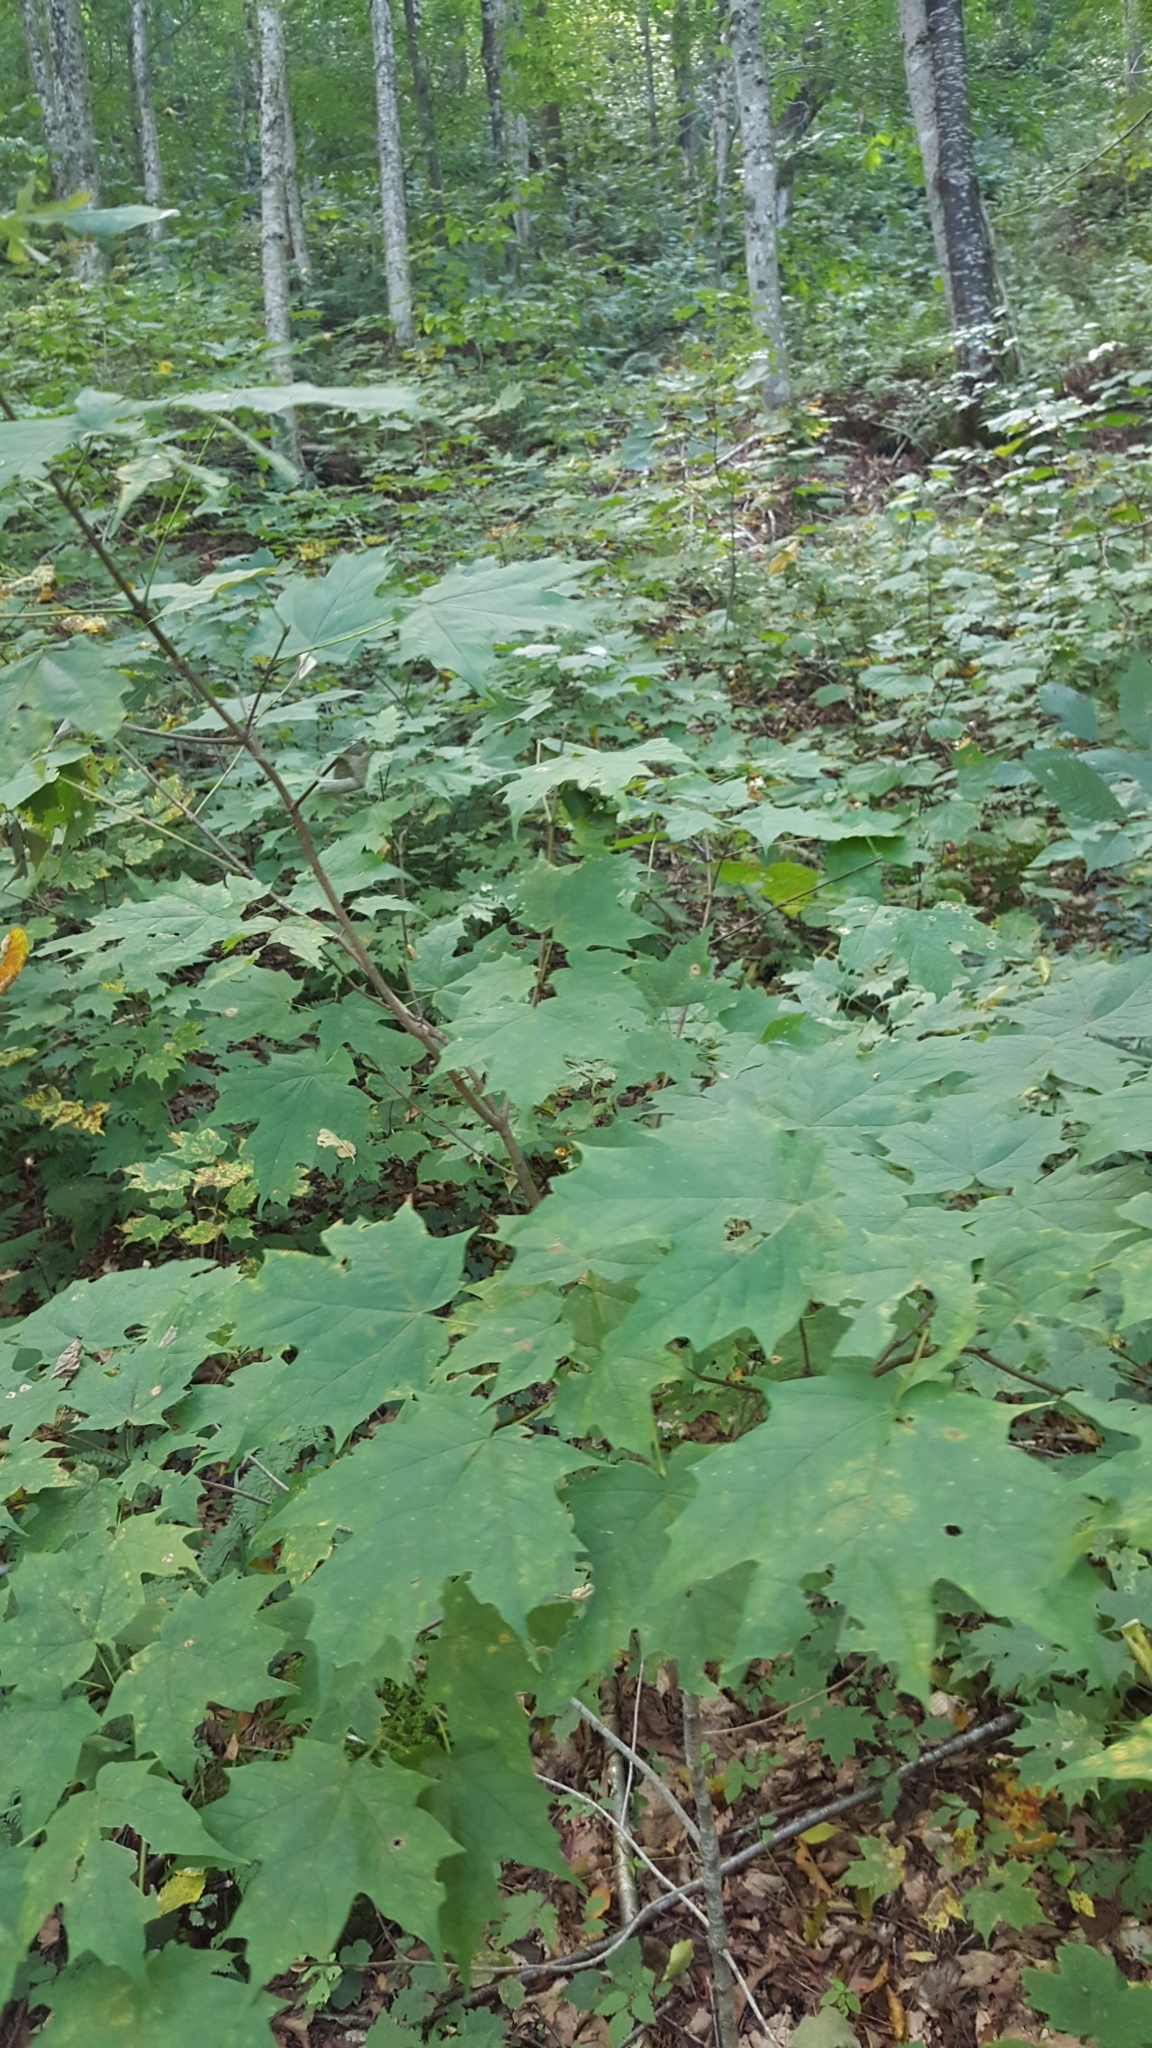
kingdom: Plantae
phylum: Tracheophyta
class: Magnoliopsida
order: Sapindales
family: Sapindaceae
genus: Acer
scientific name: Acer saccharum
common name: Sugar maple
